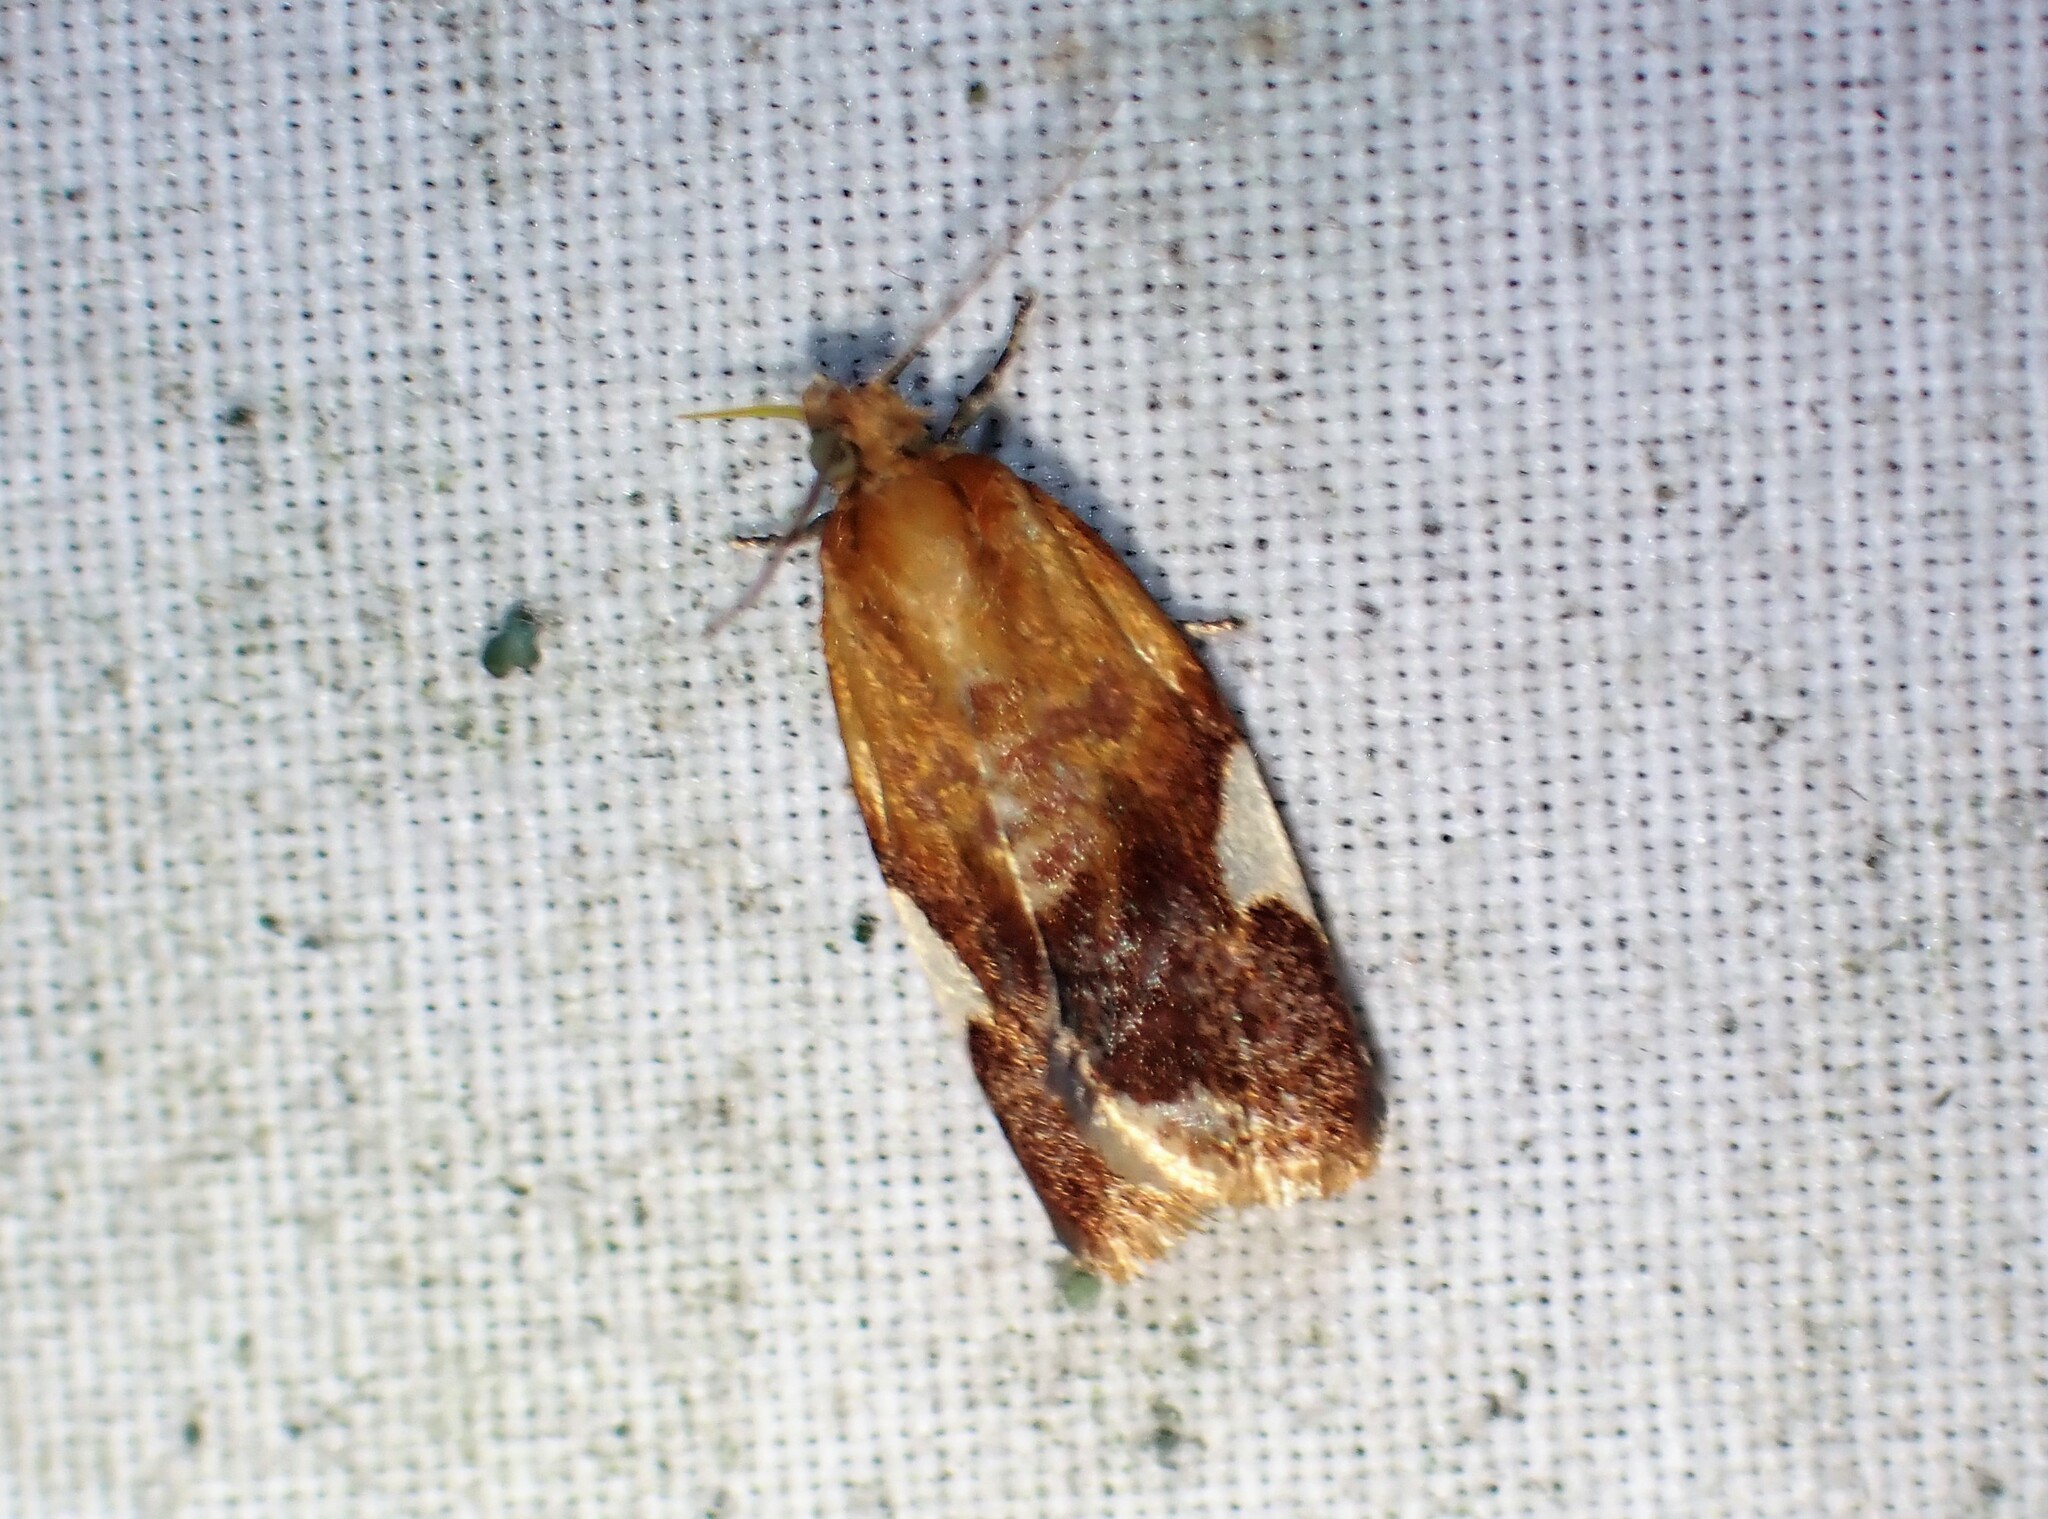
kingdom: Animalia
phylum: Arthropoda
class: Insecta
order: Lepidoptera
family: Tortricidae
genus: Clepsis
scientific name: Clepsis persicana
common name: White triangle tortrix
